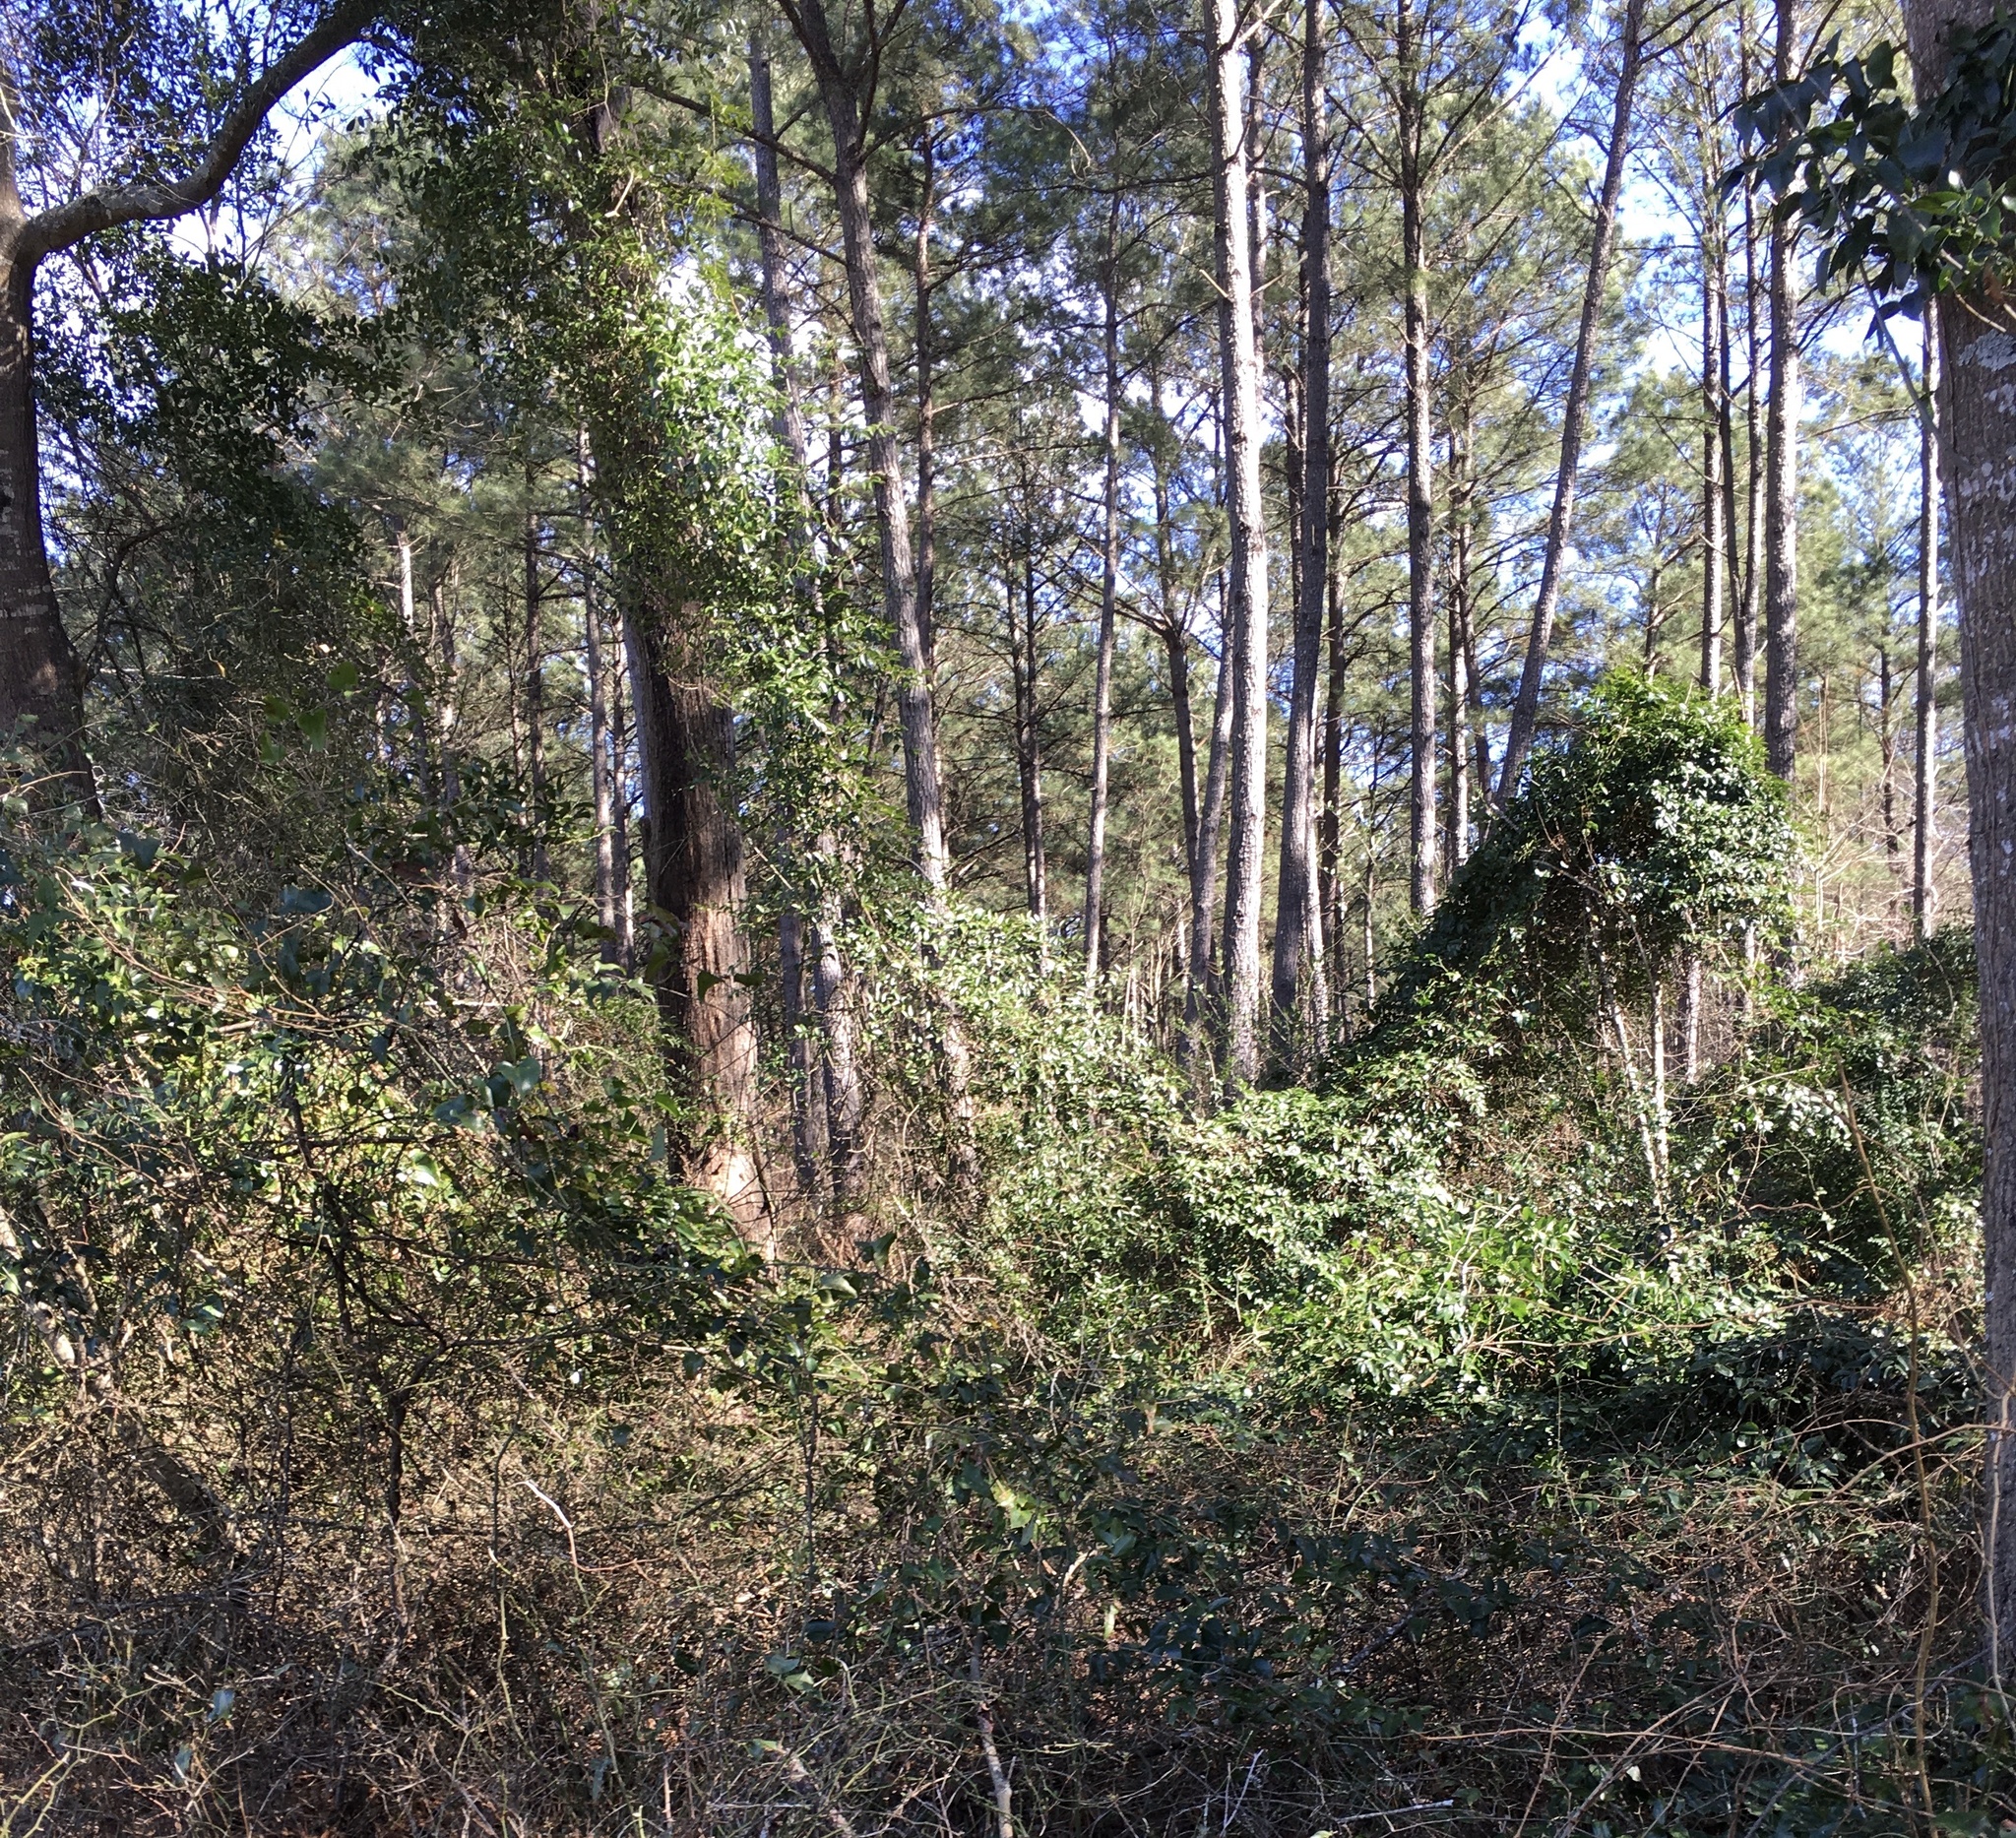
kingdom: Plantae
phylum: Tracheophyta
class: Liliopsida
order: Liliales
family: Smilacaceae
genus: Smilax
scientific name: Smilax maritima
